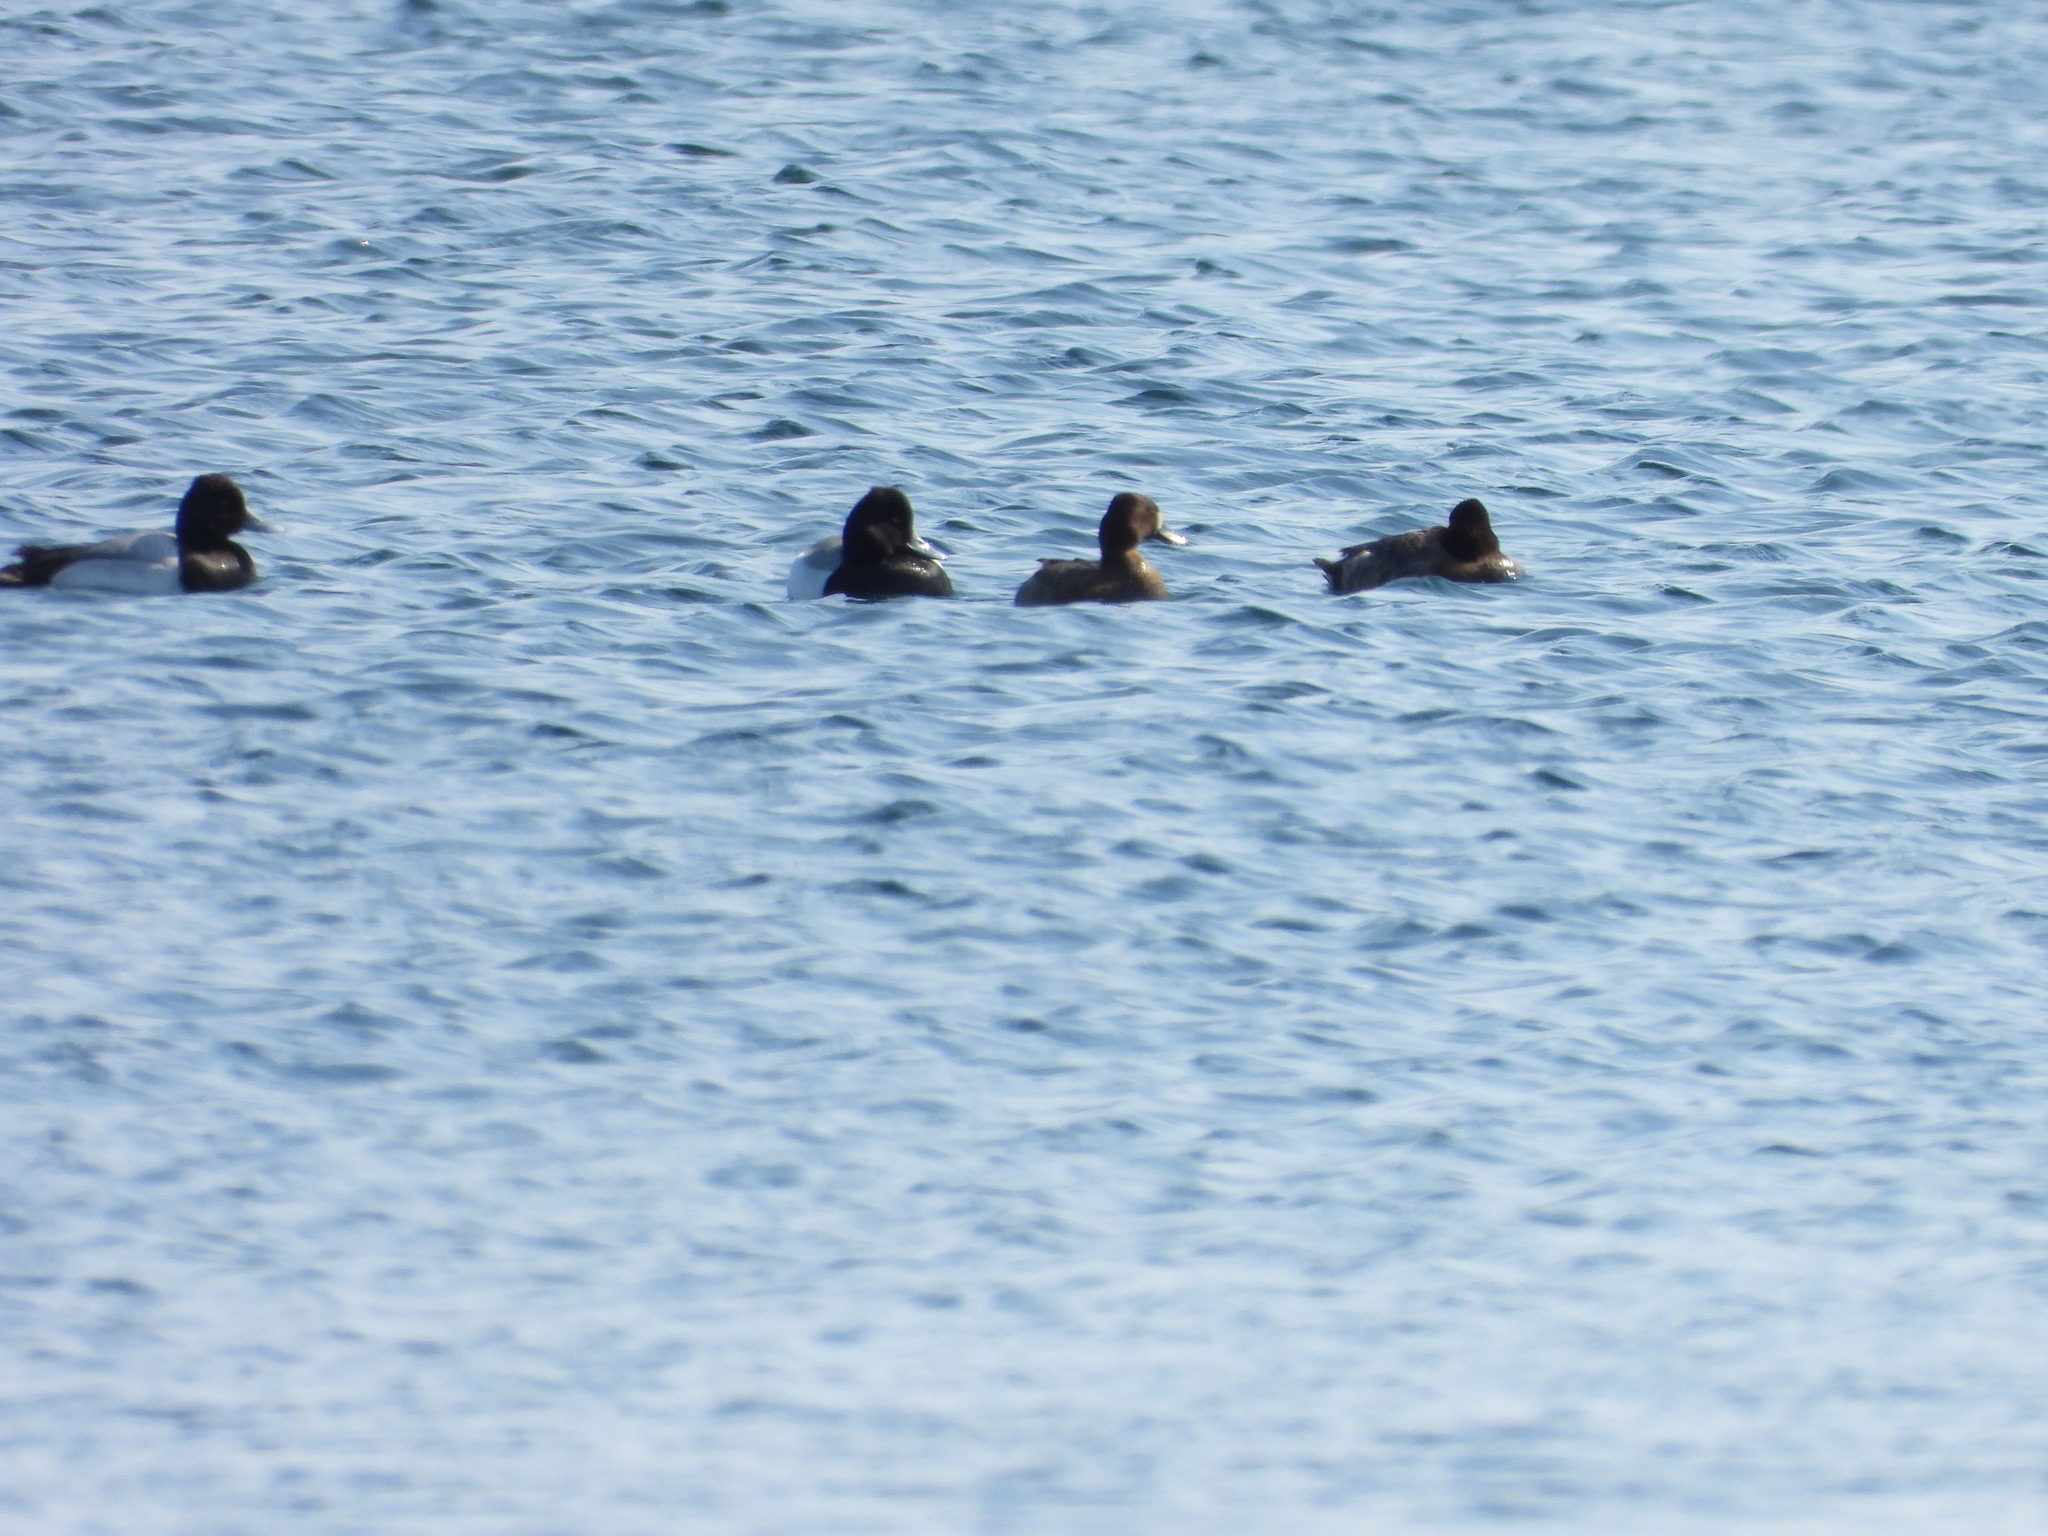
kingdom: Animalia
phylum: Chordata
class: Aves
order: Anseriformes
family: Anatidae
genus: Aythya
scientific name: Aythya affinis
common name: Lesser scaup
